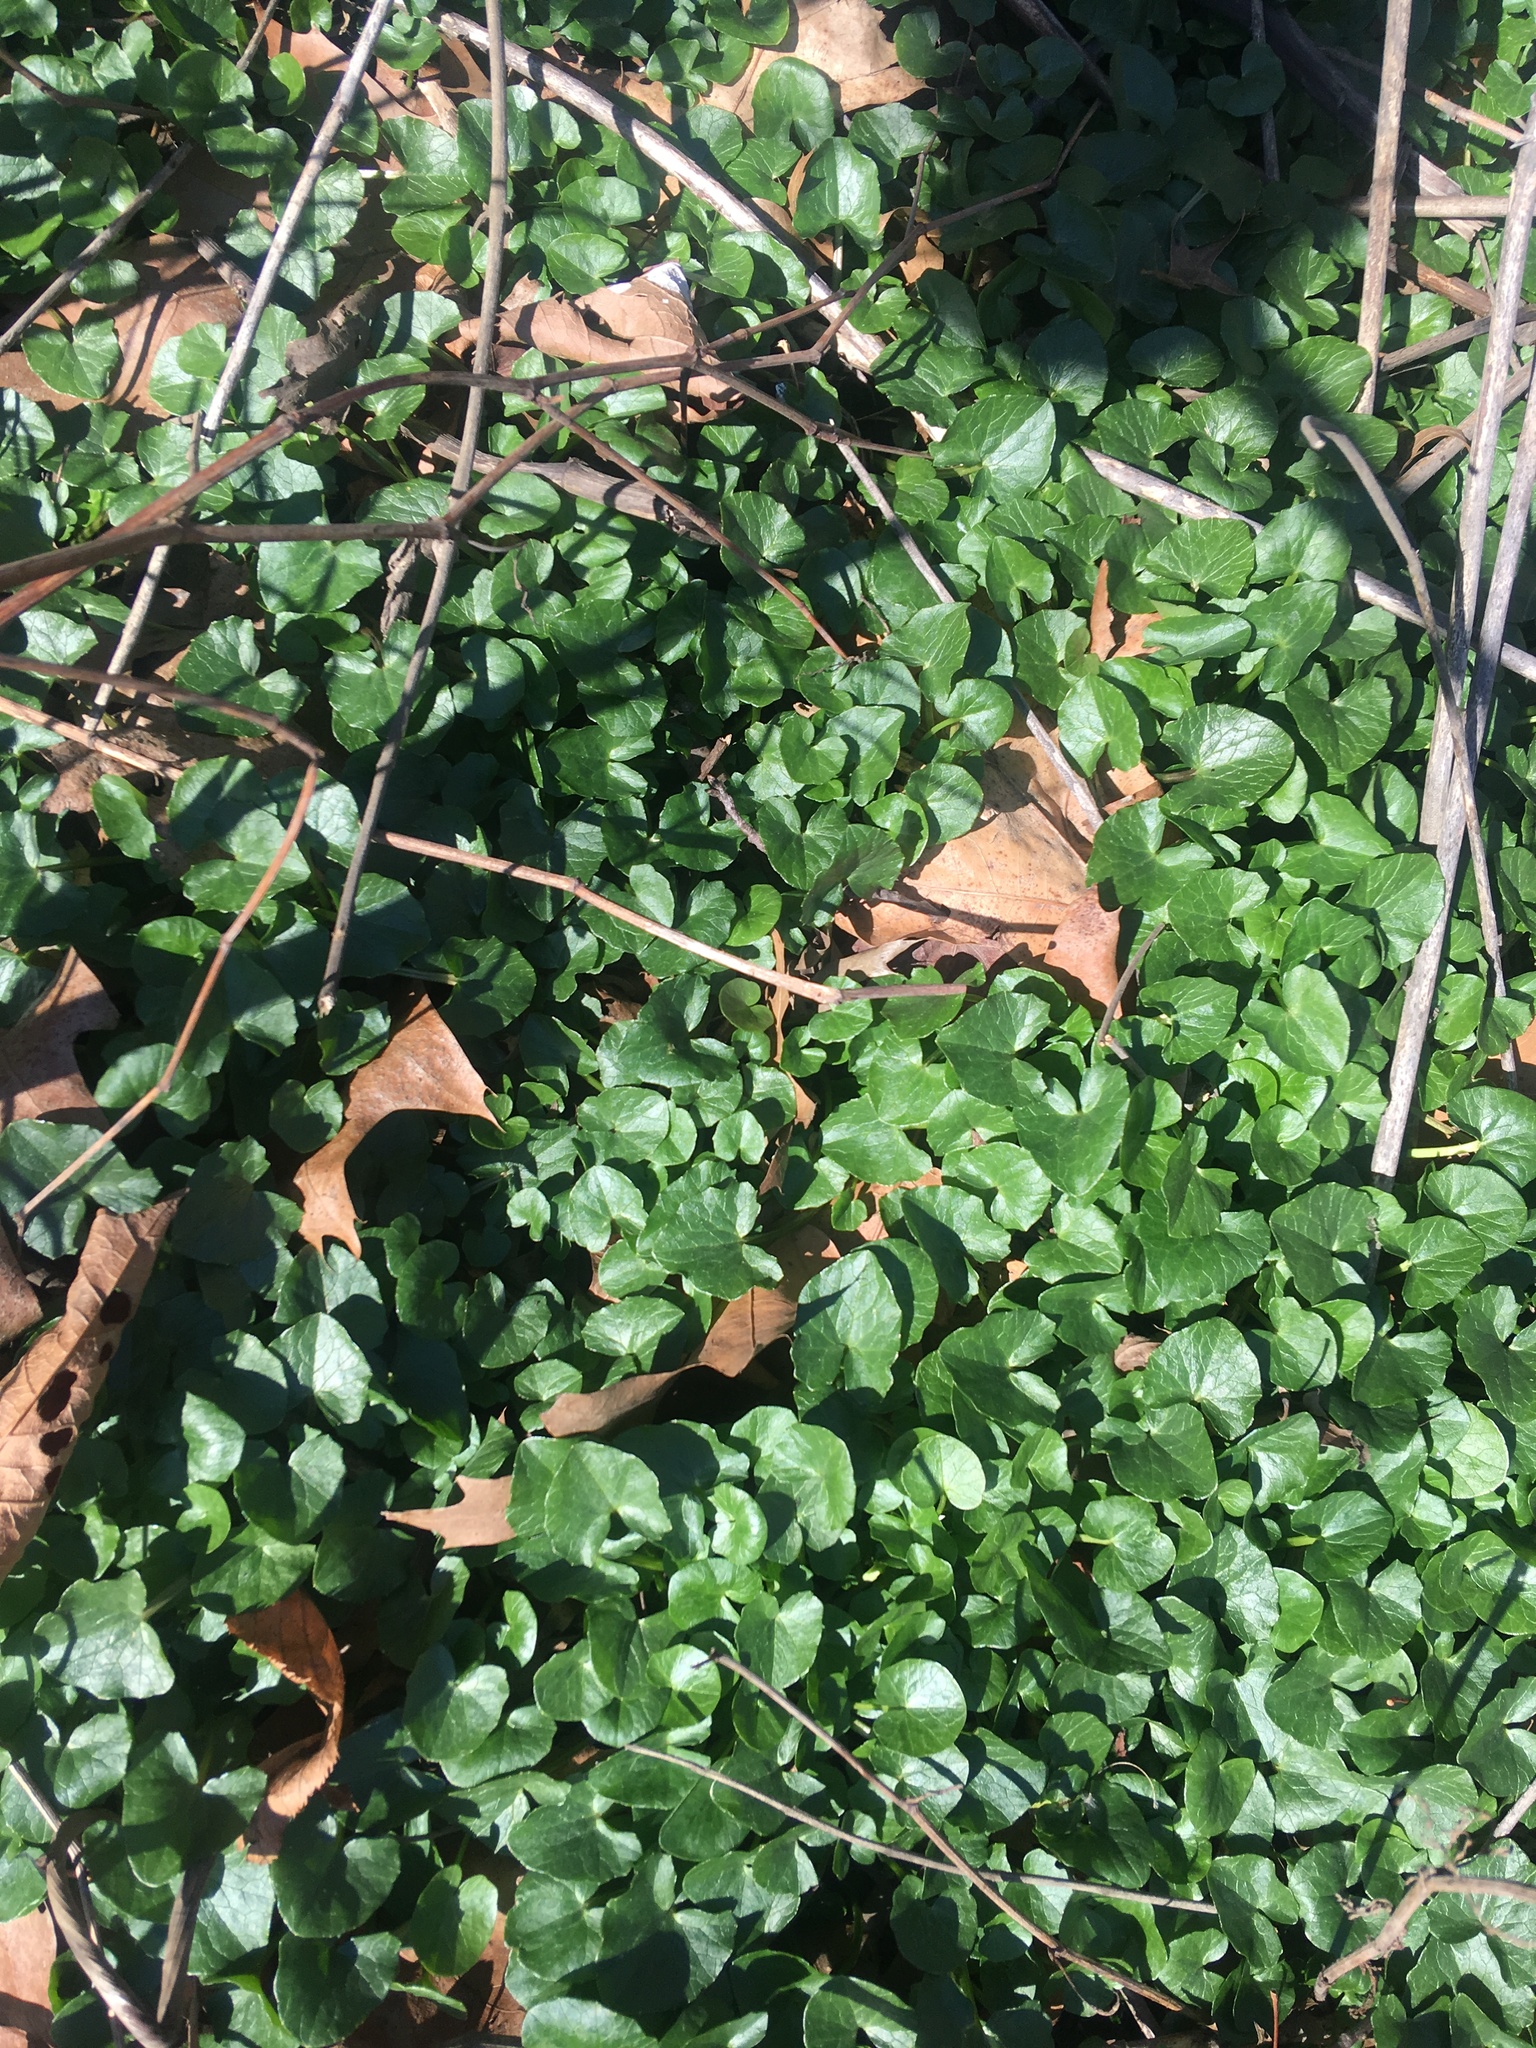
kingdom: Plantae
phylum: Tracheophyta
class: Magnoliopsida
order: Ranunculales
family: Ranunculaceae
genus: Ficaria
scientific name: Ficaria verna
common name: Lesser celandine
